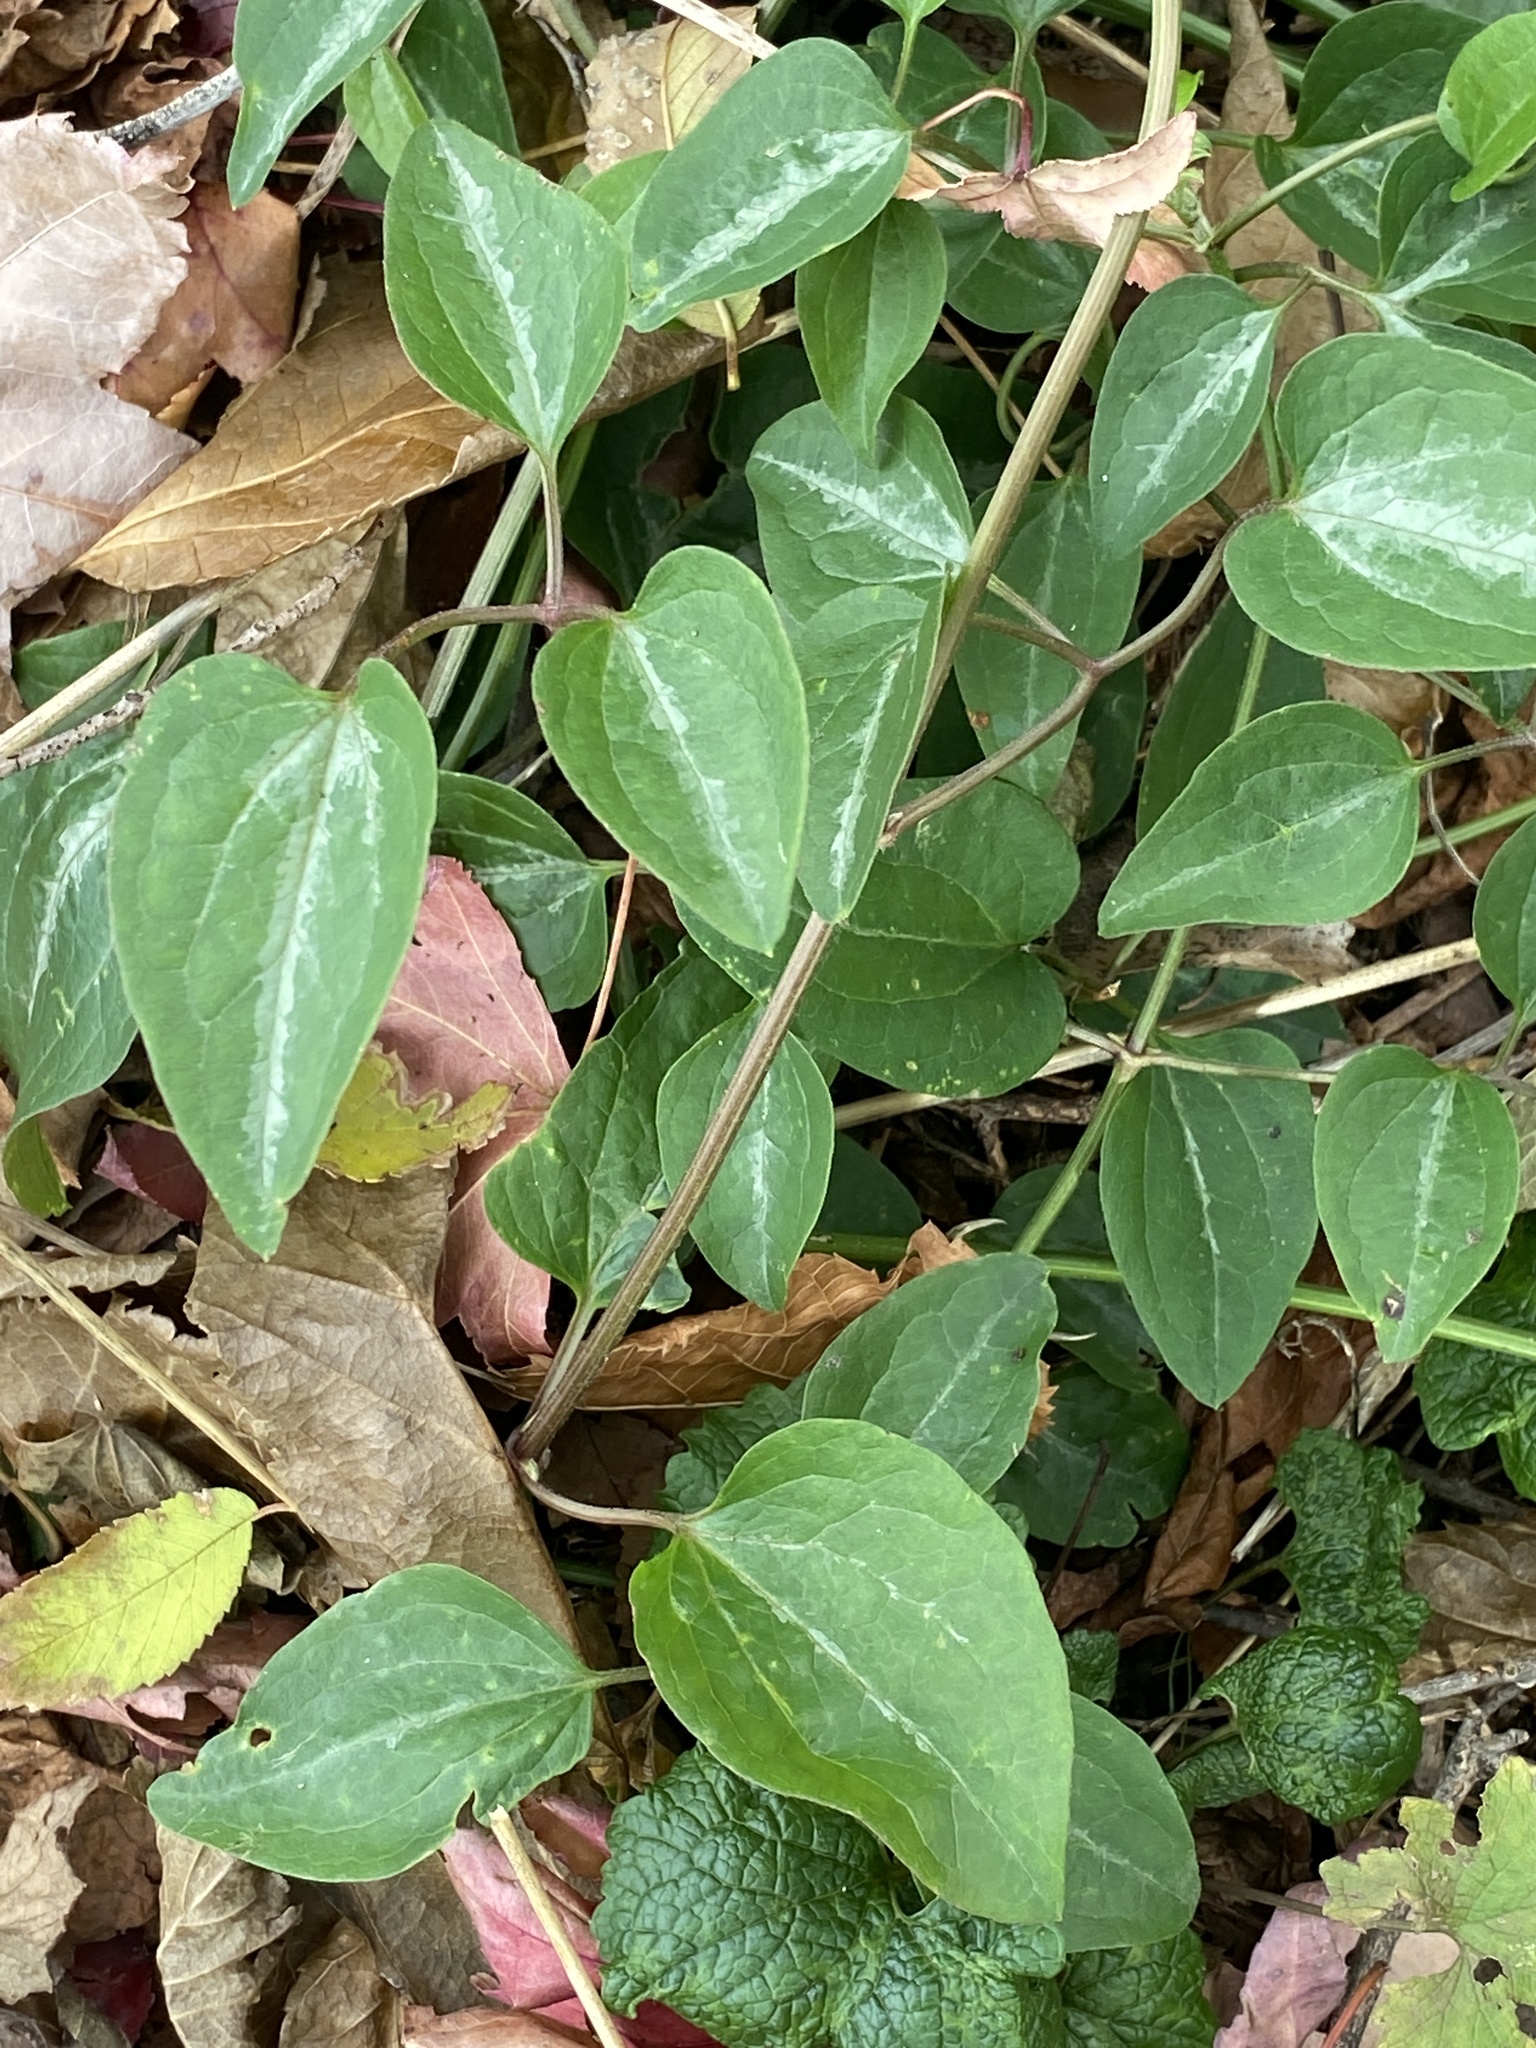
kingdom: Plantae
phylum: Tracheophyta
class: Magnoliopsida
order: Ranunculales
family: Ranunculaceae
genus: Clematis
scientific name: Clematis terniflora
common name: Sweet autumn clematis
